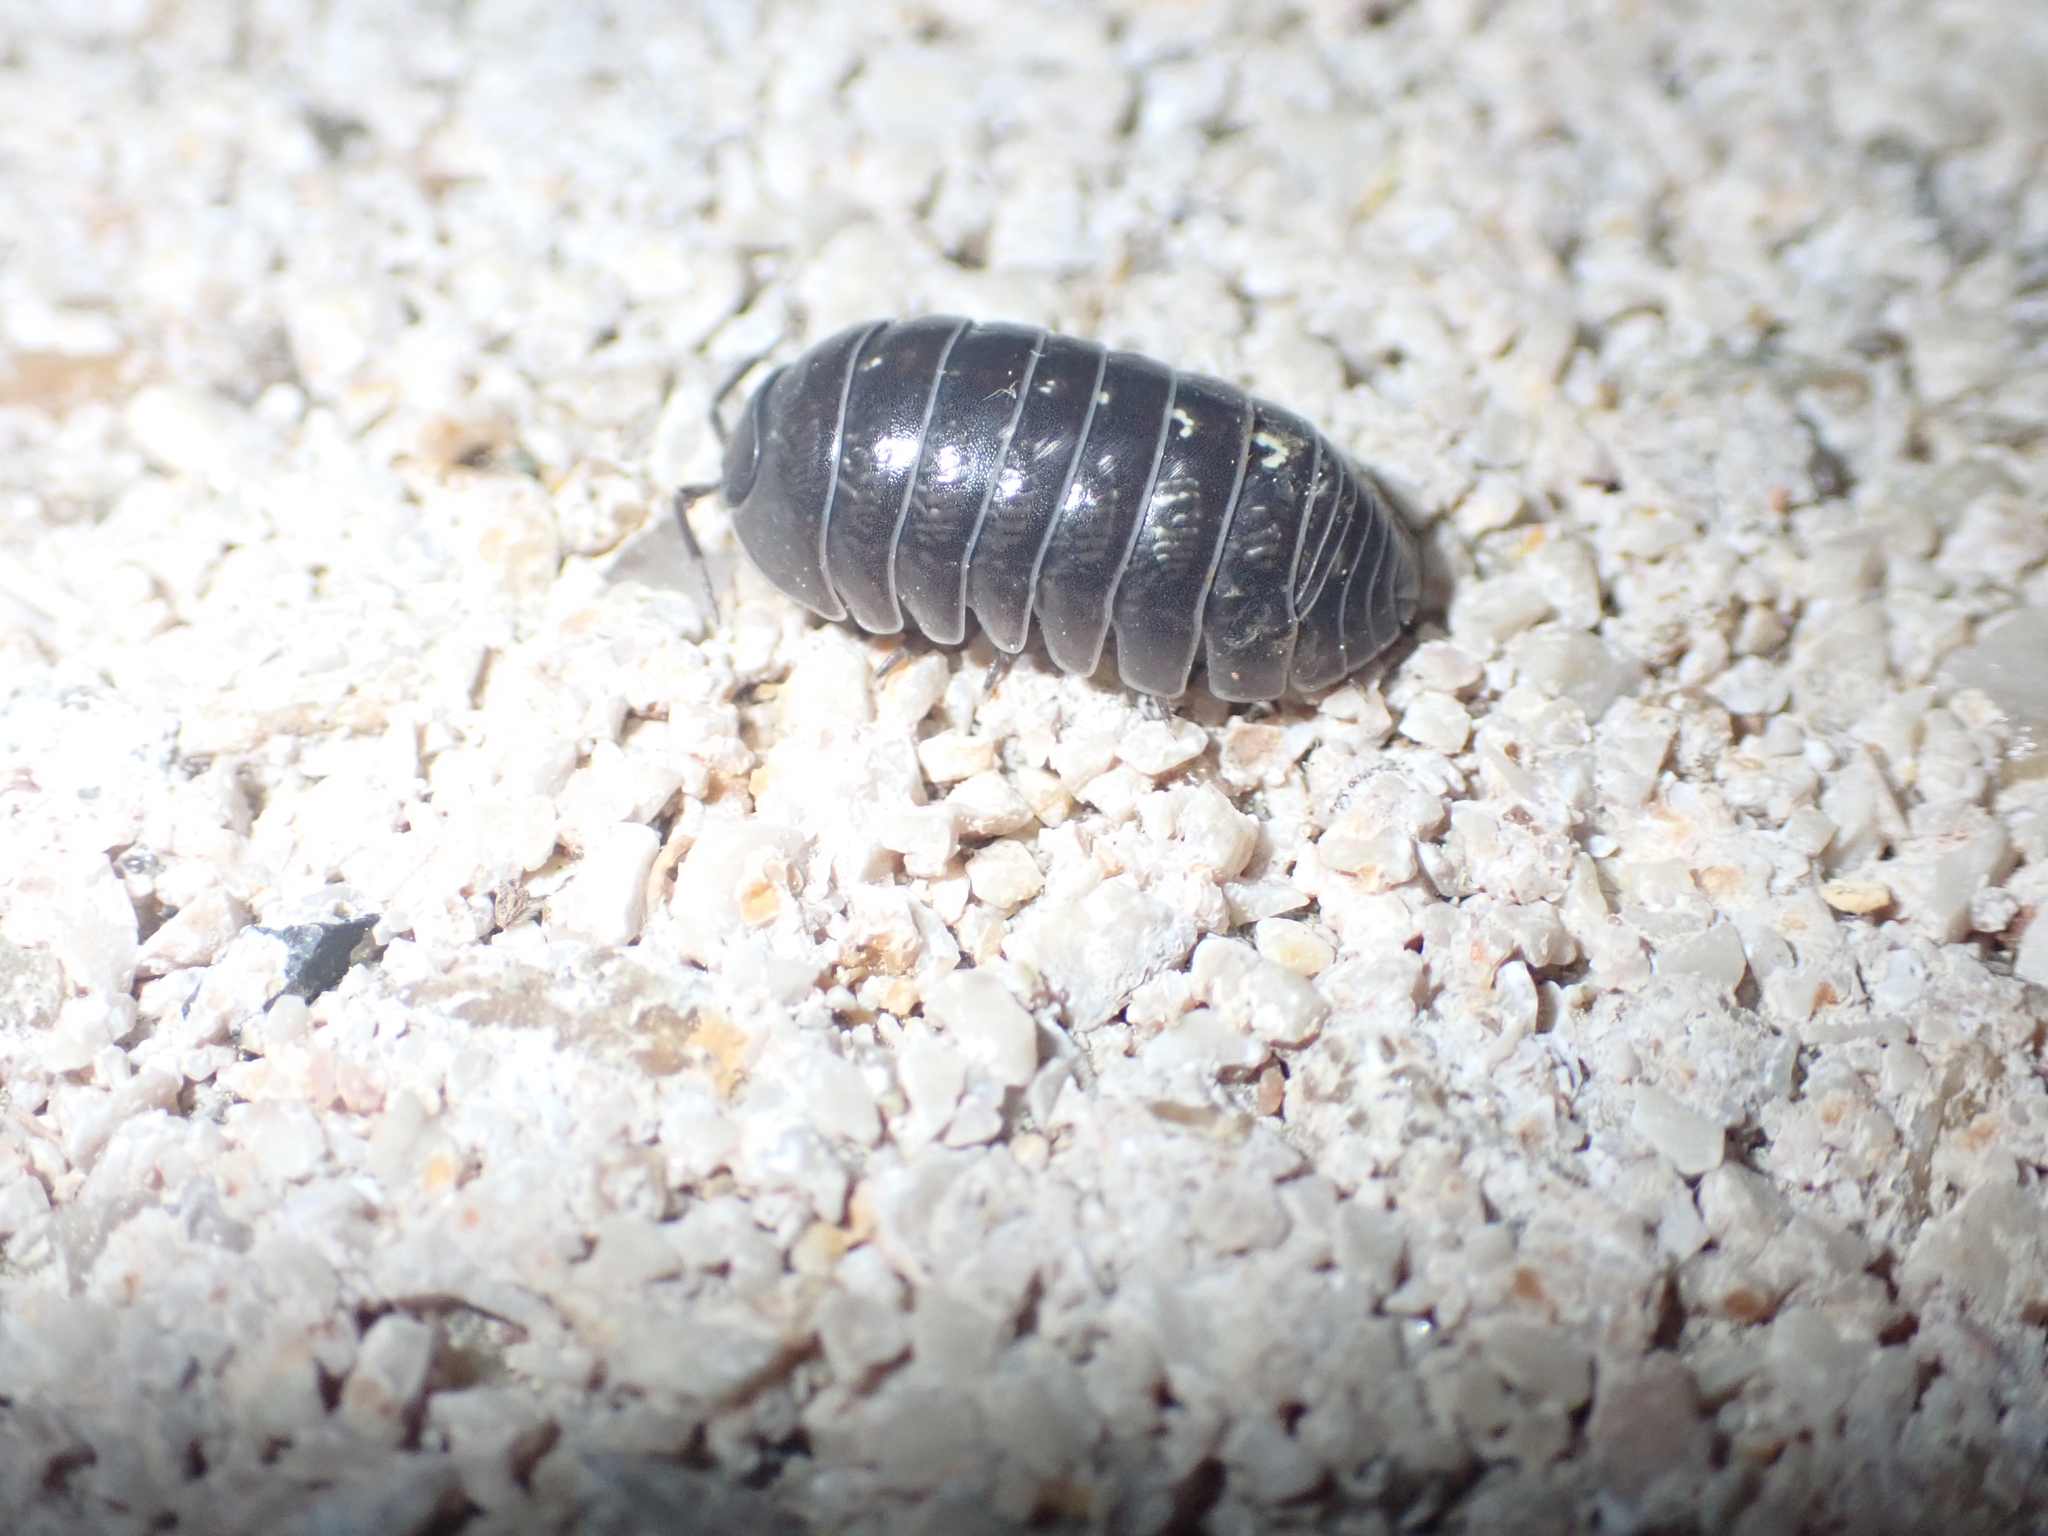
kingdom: Animalia
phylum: Arthropoda
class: Malacostraca
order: Isopoda
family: Armadillidiidae
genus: Armadillidium
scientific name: Armadillidium vulgare
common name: Common pill woodlouse
